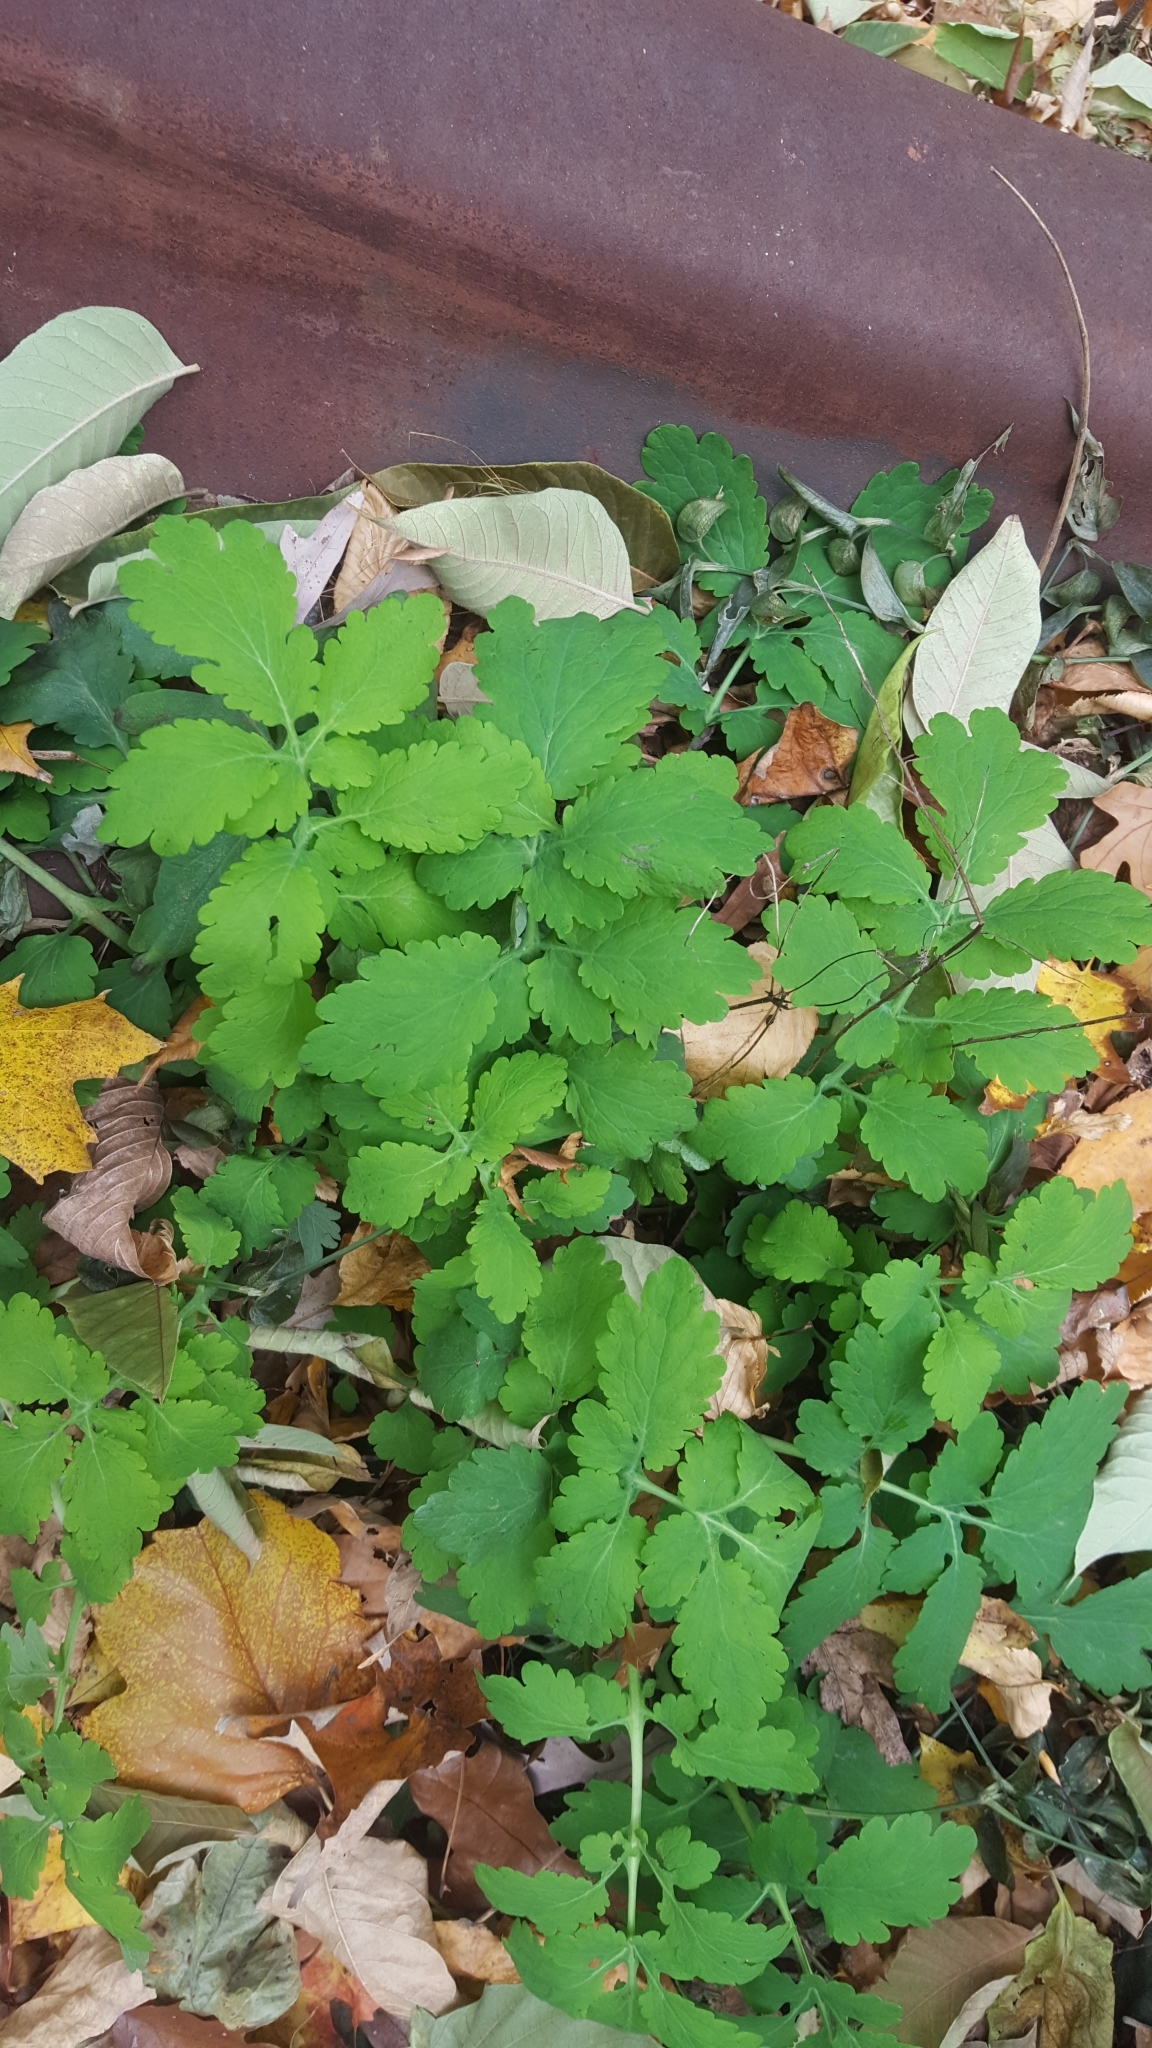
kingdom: Plantae
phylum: Tracheophyta
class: Magnoliopsida
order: Ranunculales
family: Papaveraceae
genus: Chelidonium
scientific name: Chelidonium majus
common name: Greater celandine
